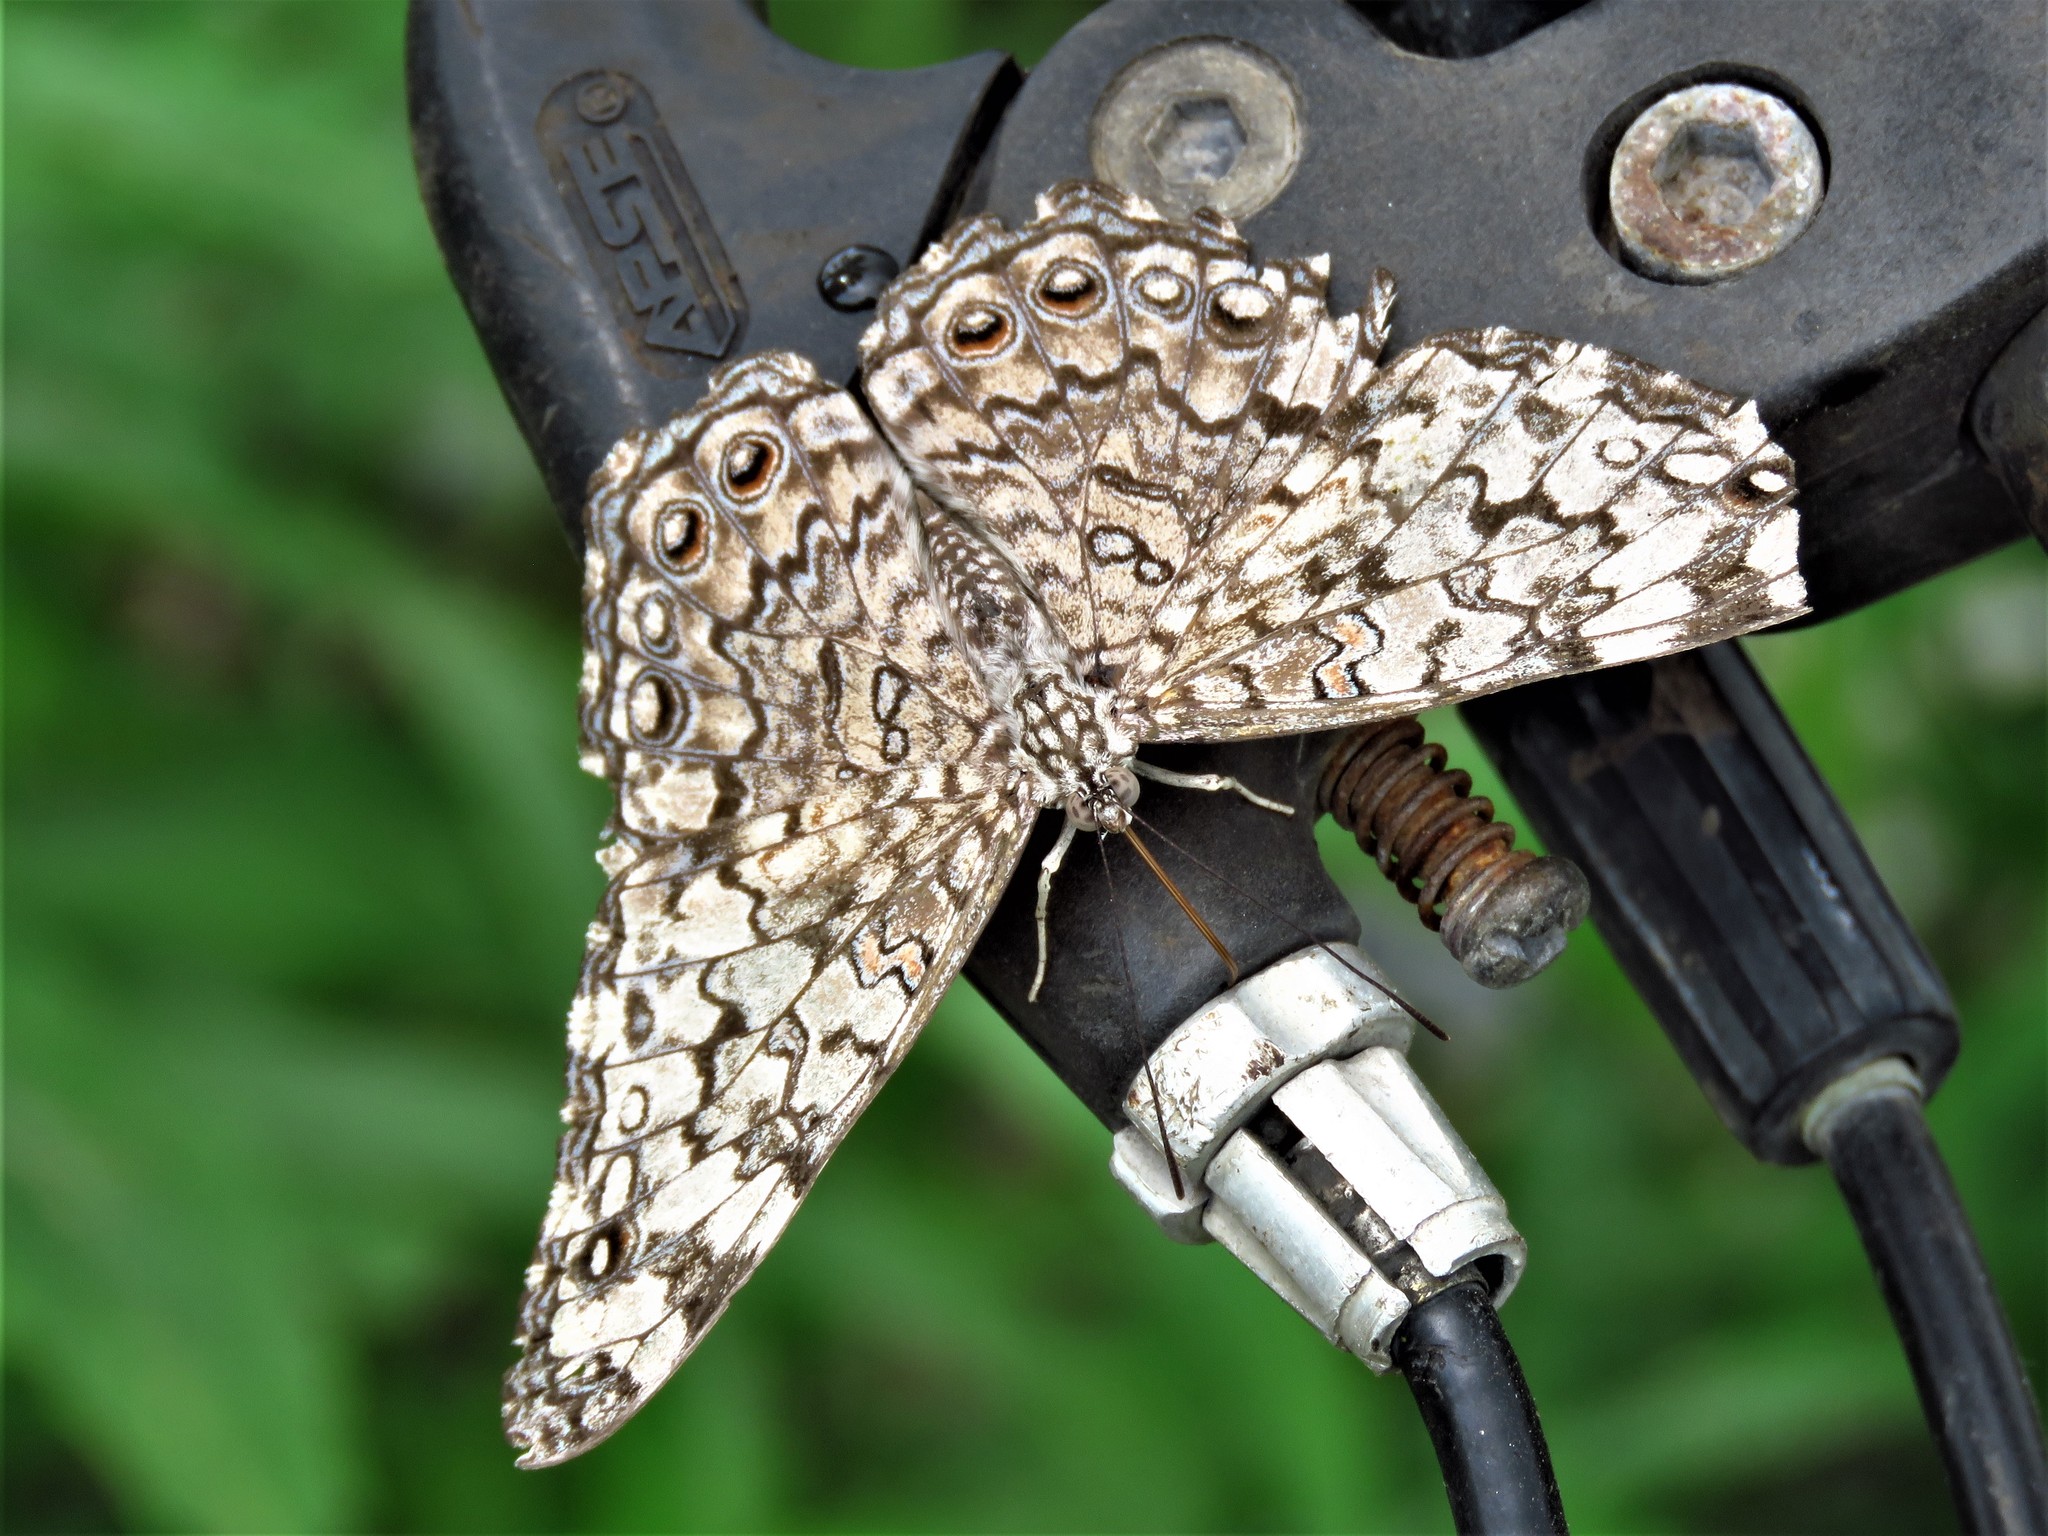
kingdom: Animalia
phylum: Arthropoda
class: Insecta
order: Lepidoptera
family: Nymphalidae
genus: Hamadryas
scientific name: Hamadryas februa
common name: Gray cracker
